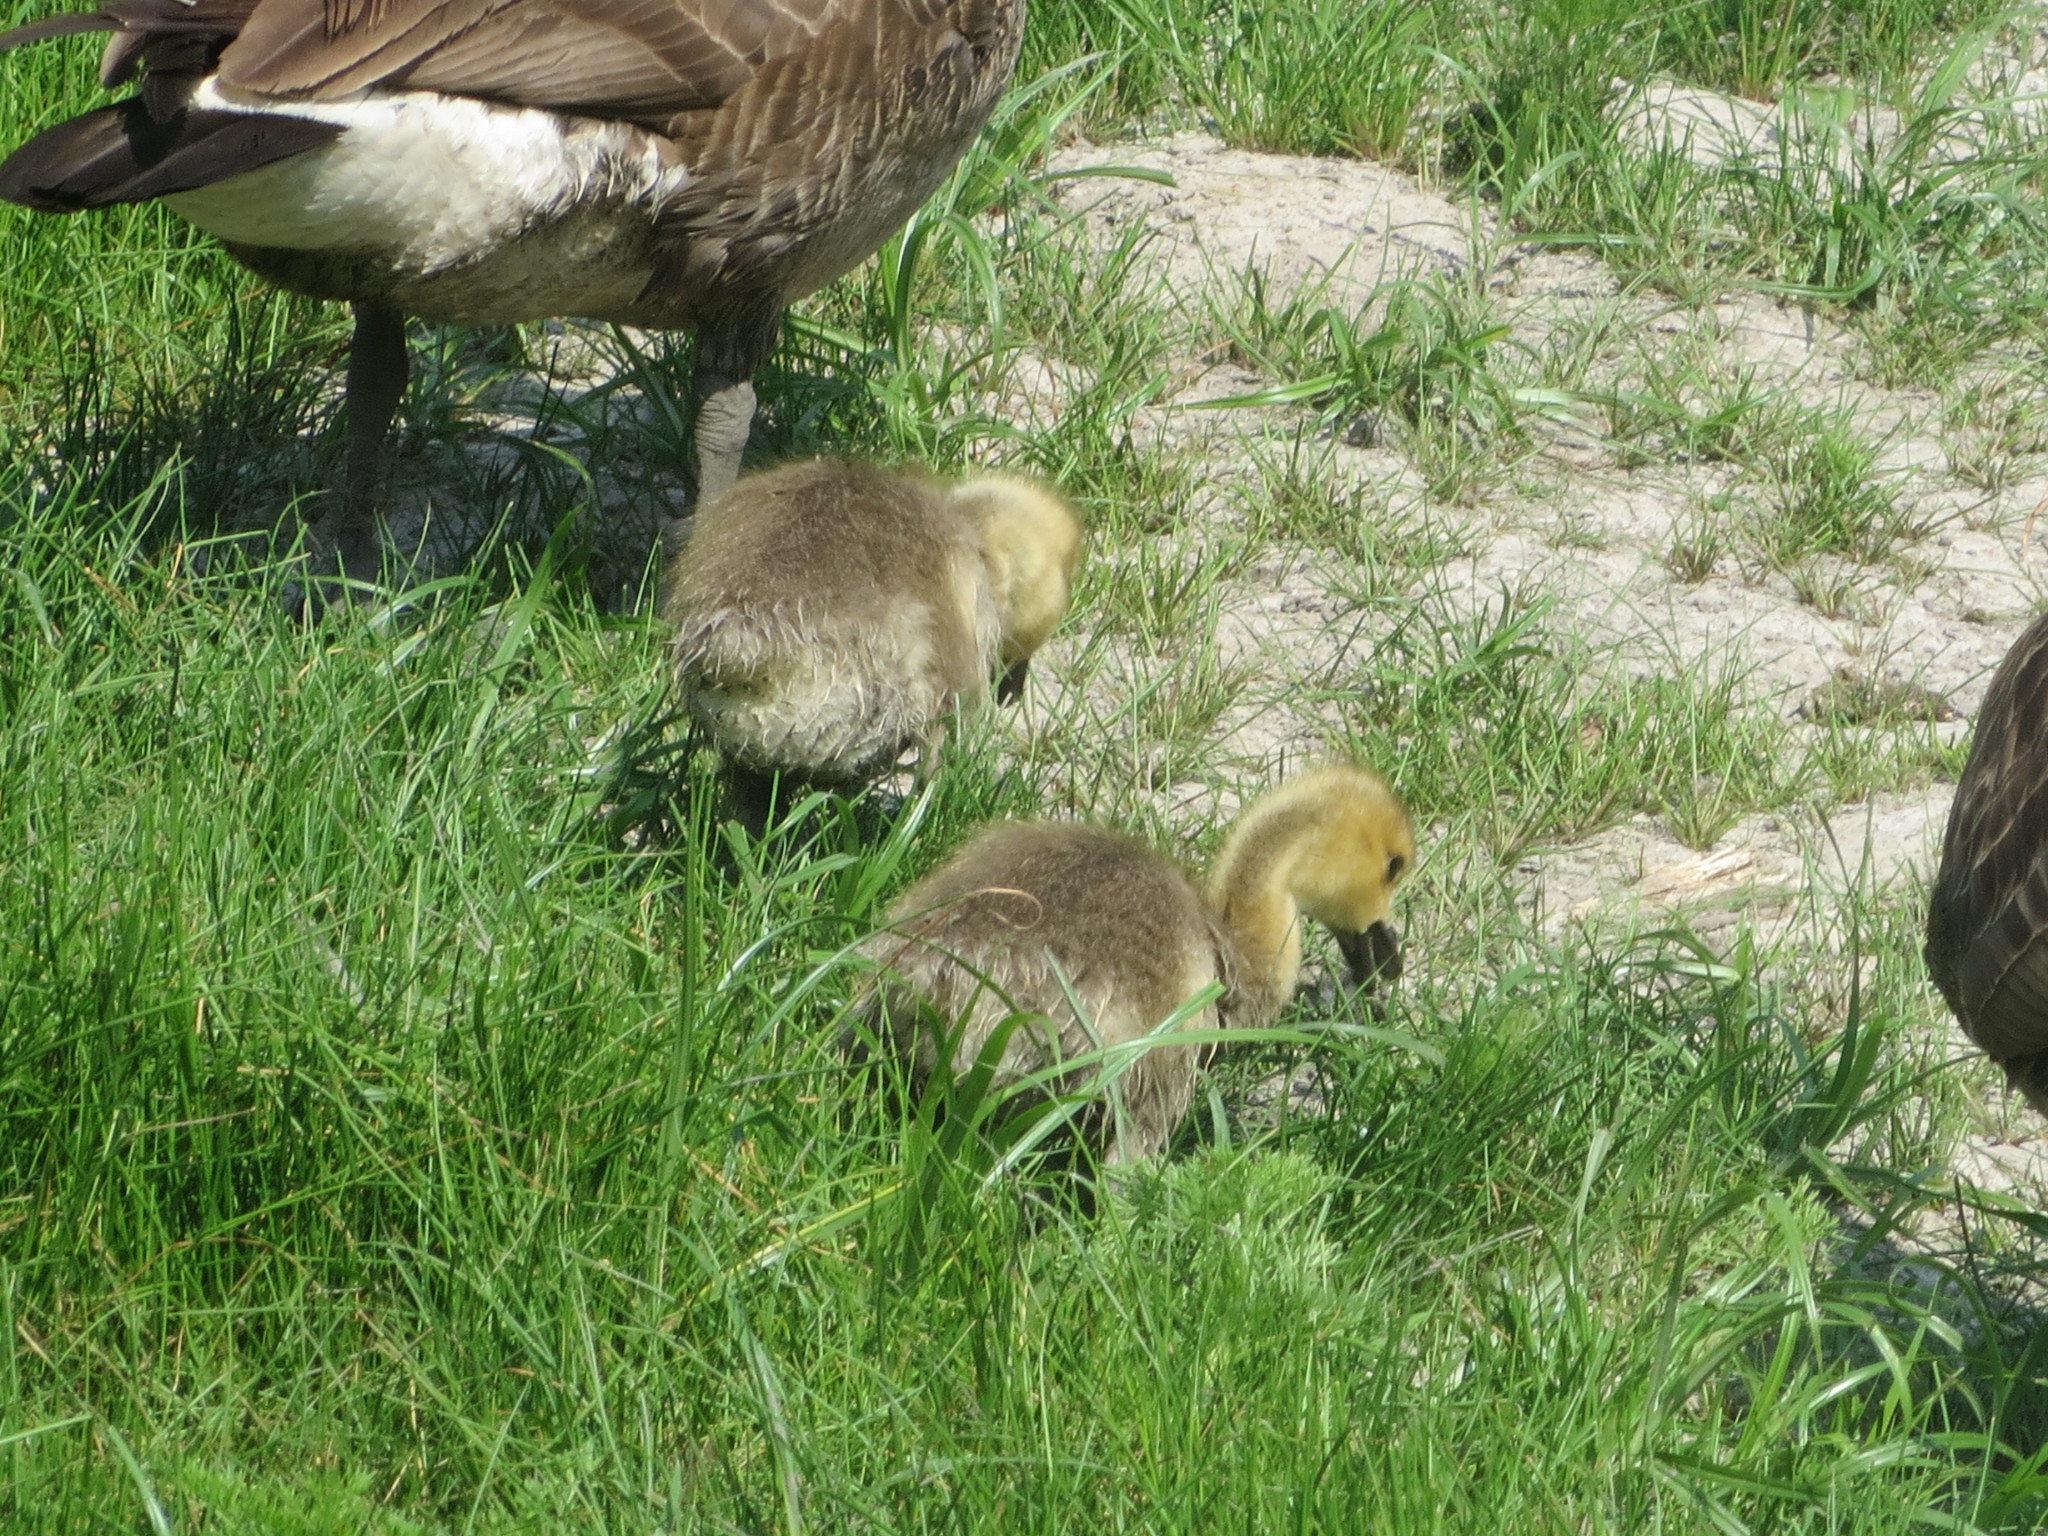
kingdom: Animalia
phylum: Chordata
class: Aves
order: Anseriformes
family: Anatidae
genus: Branta
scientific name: Branta canadensis
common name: Canada goose
